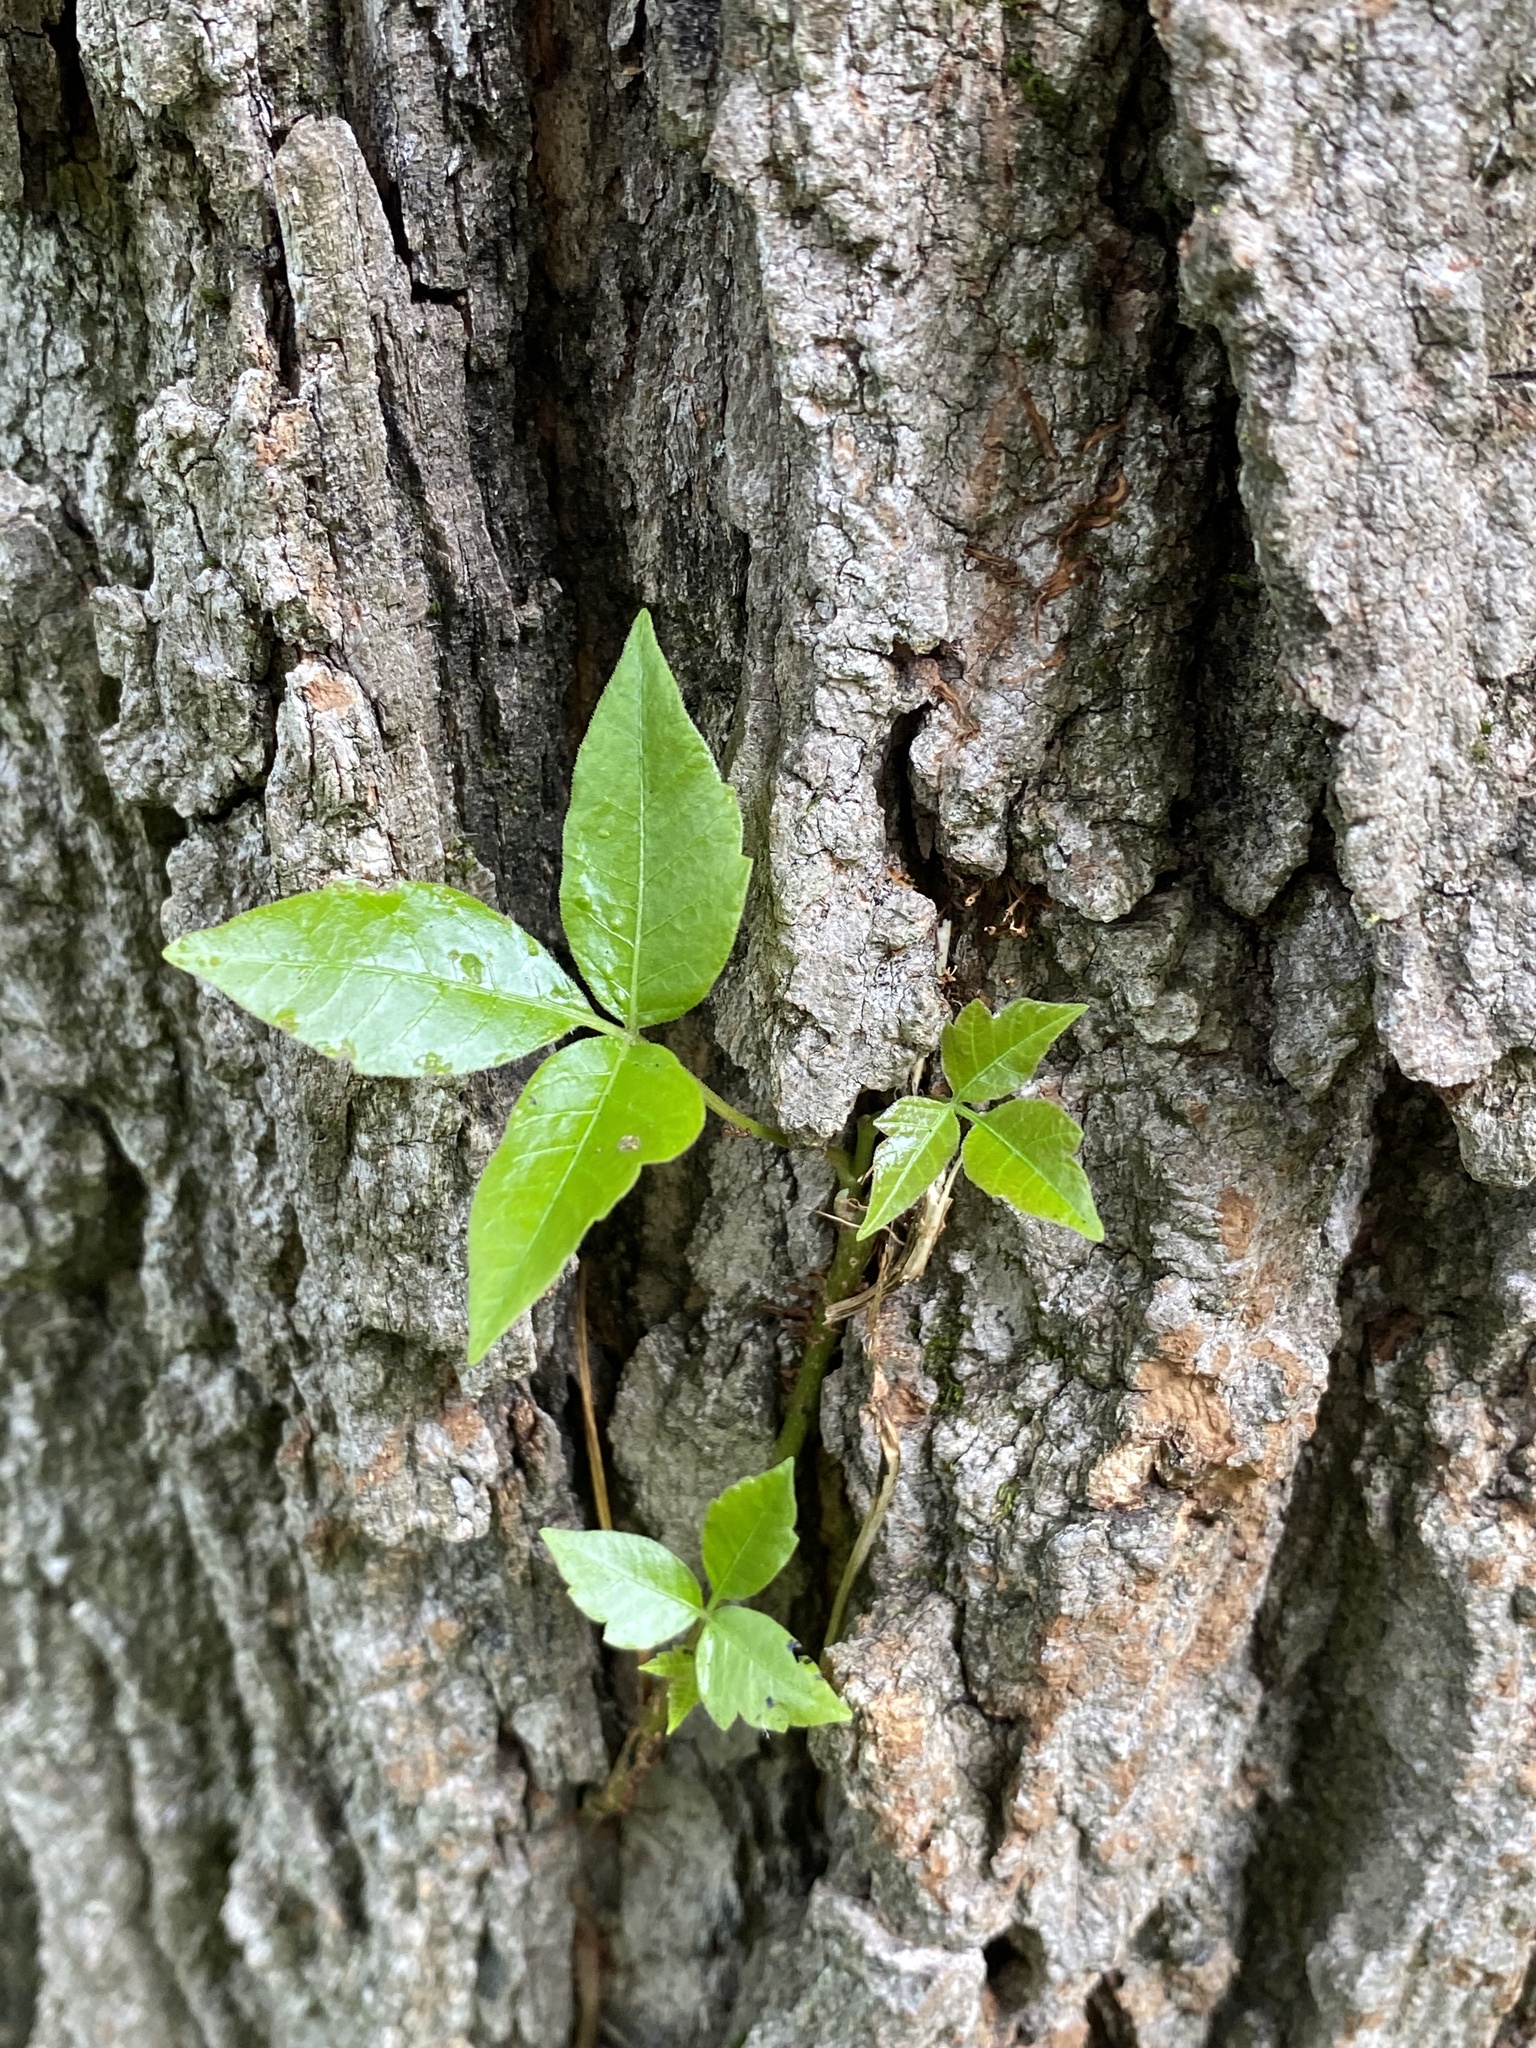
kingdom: Plantae
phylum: Tracheophyta
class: Magnoliopsida
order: Sapindales
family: Anacardiaceae
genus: Toxicodendron
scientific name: Toxicodendron radicans
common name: Poison ivy
